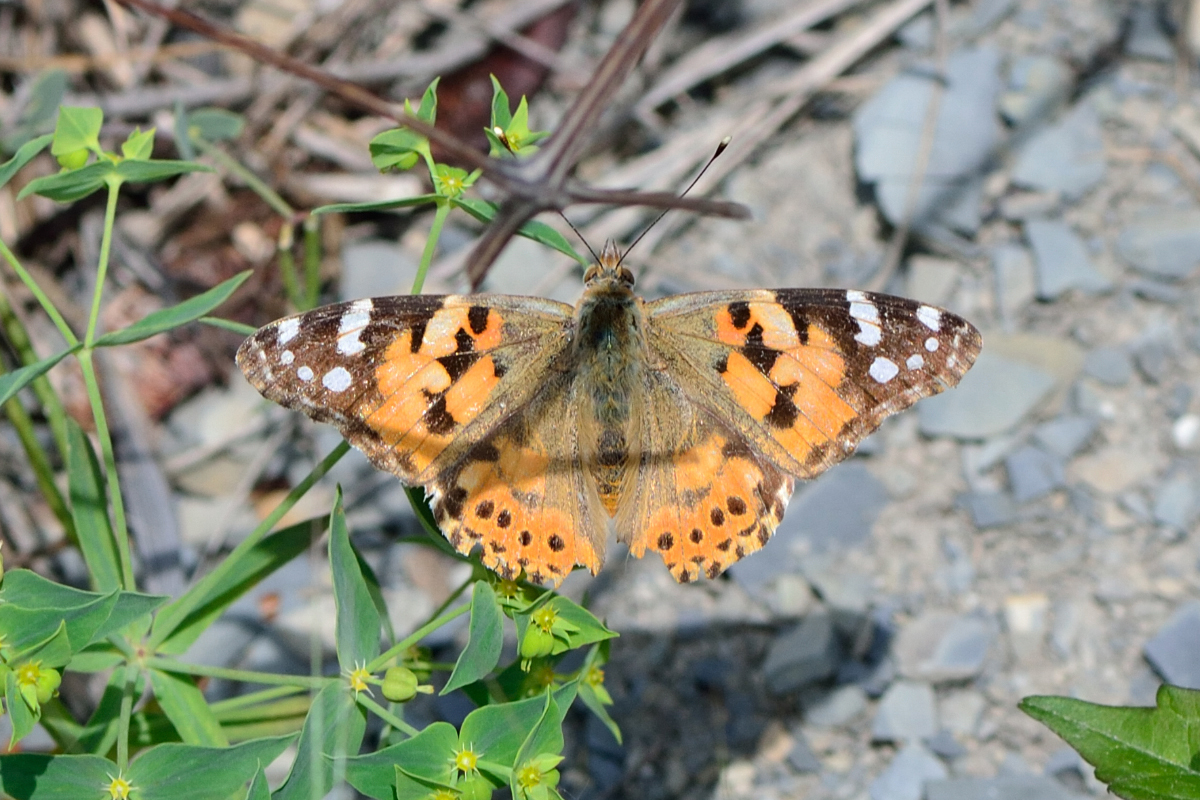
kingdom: Animalia
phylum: Arthropoda
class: Insecta
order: Lepidoptera
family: Nymphalidae
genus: Vanessa
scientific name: Vanessa cardui
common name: Painted lady
